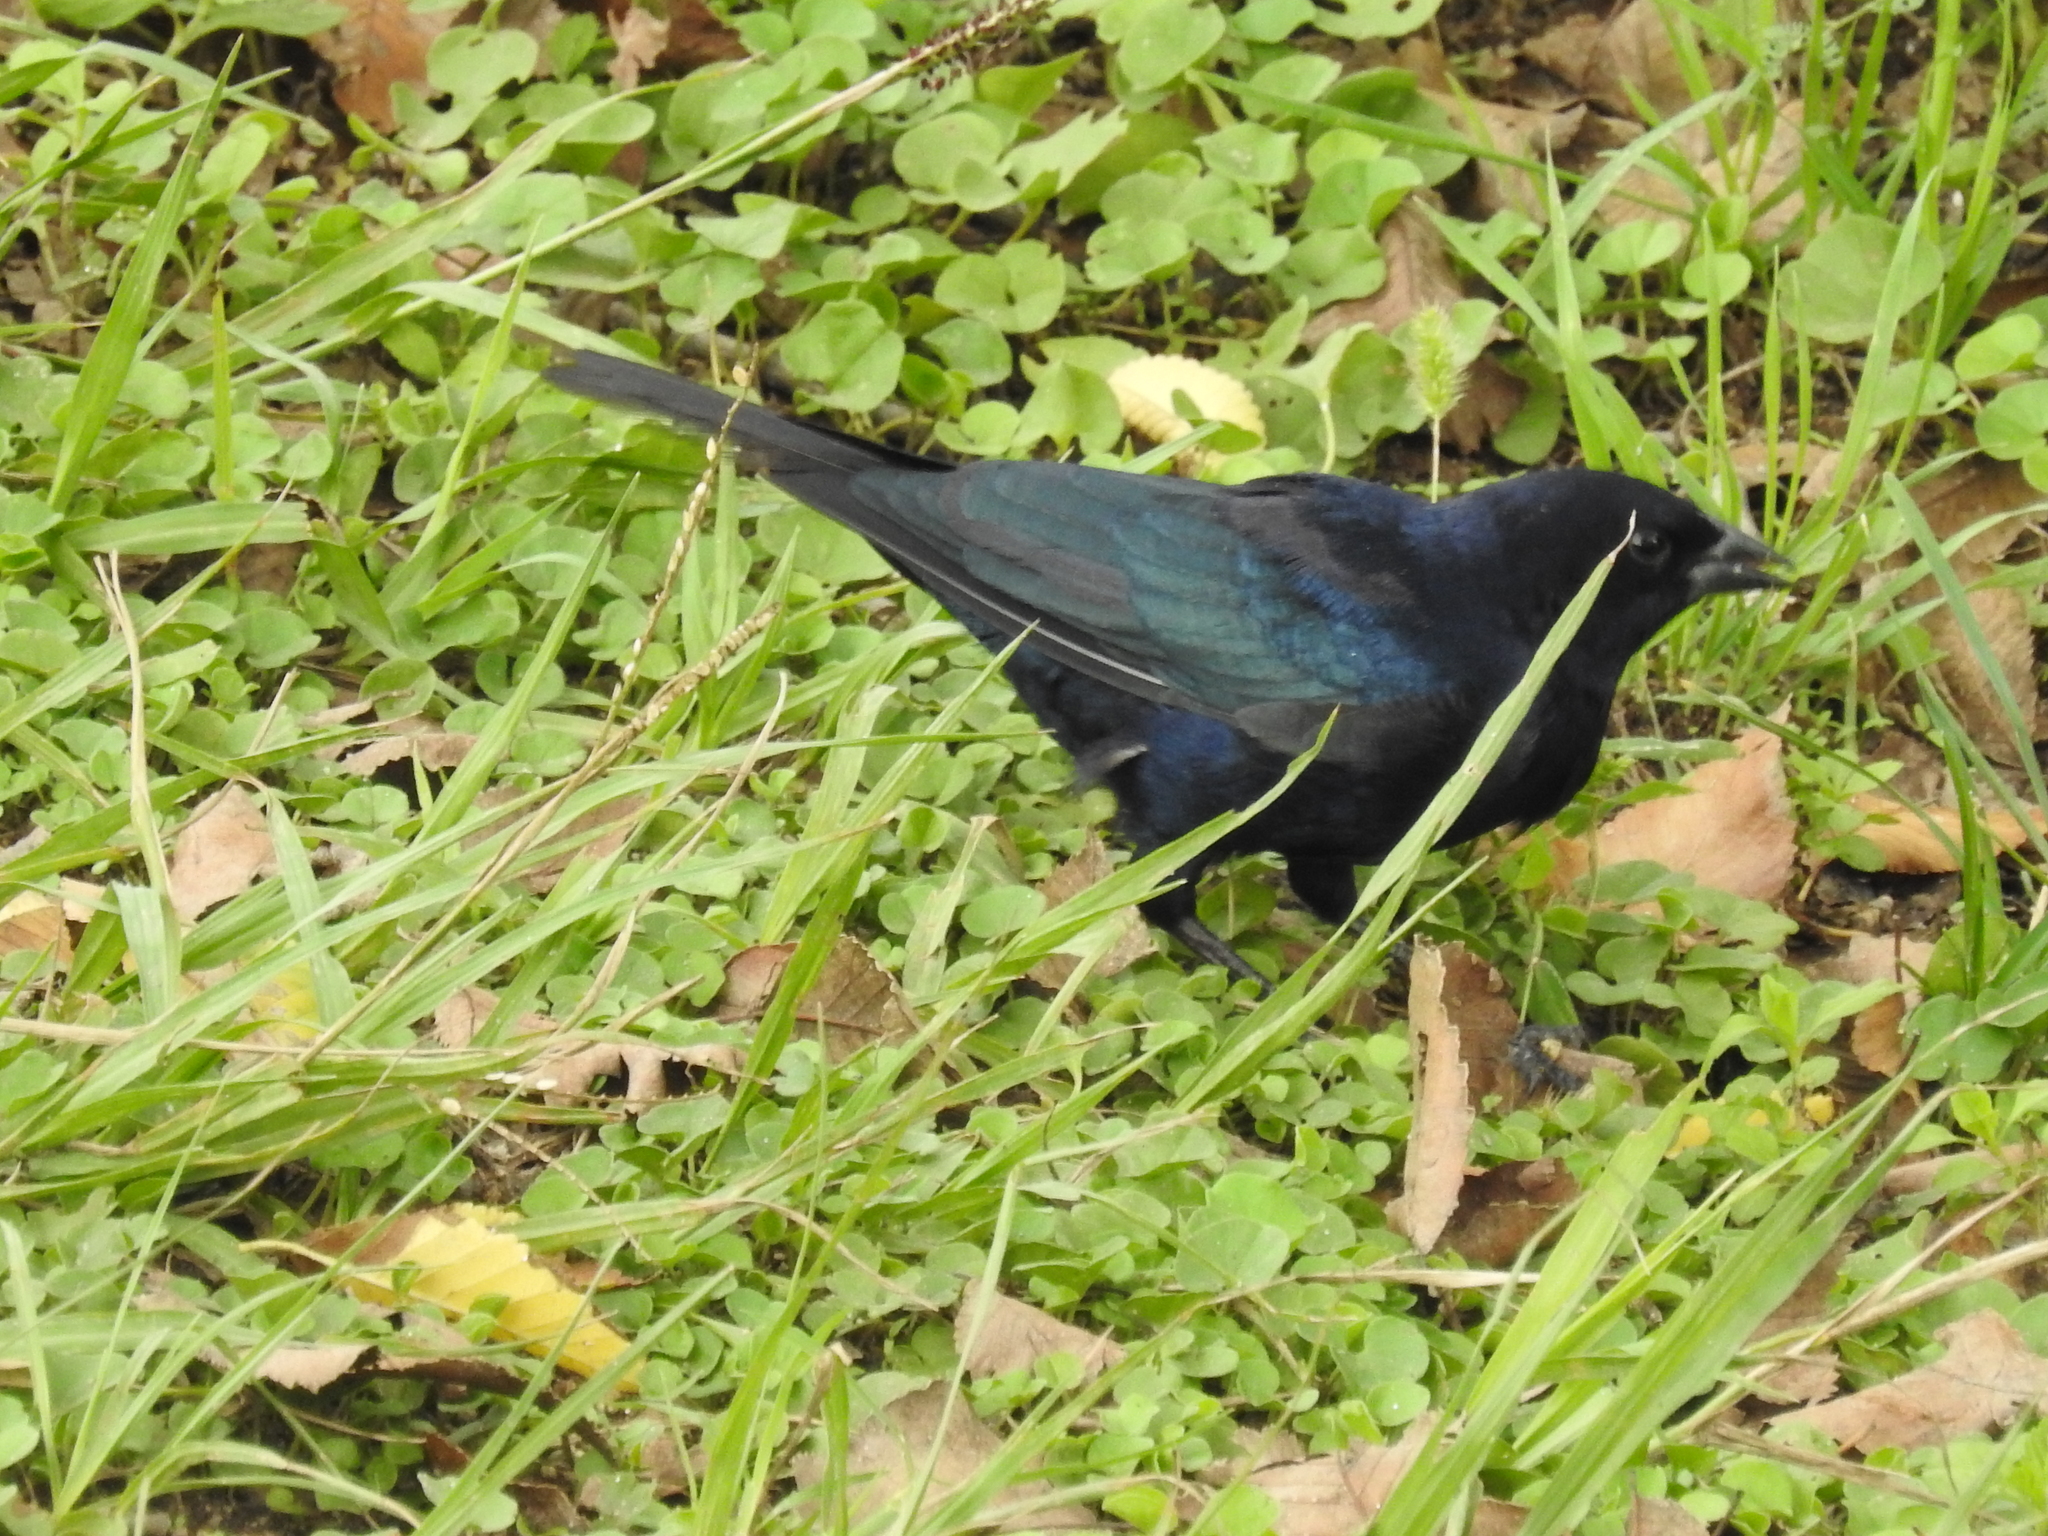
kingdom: Animalia
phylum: Chordata
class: Aves
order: Passeriformes
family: Icteridae
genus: Molothrus
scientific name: Molothrus rufoaxillaris
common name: Screaming cowbird
